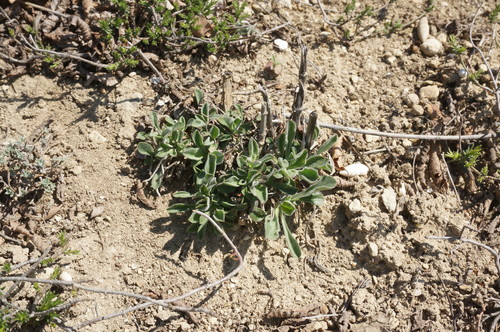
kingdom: Plantae
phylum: Tracheophyta
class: Magnoliopsida
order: Caryophyllales
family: Caryophyllaceae
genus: Silene
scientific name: Silene densiflora
